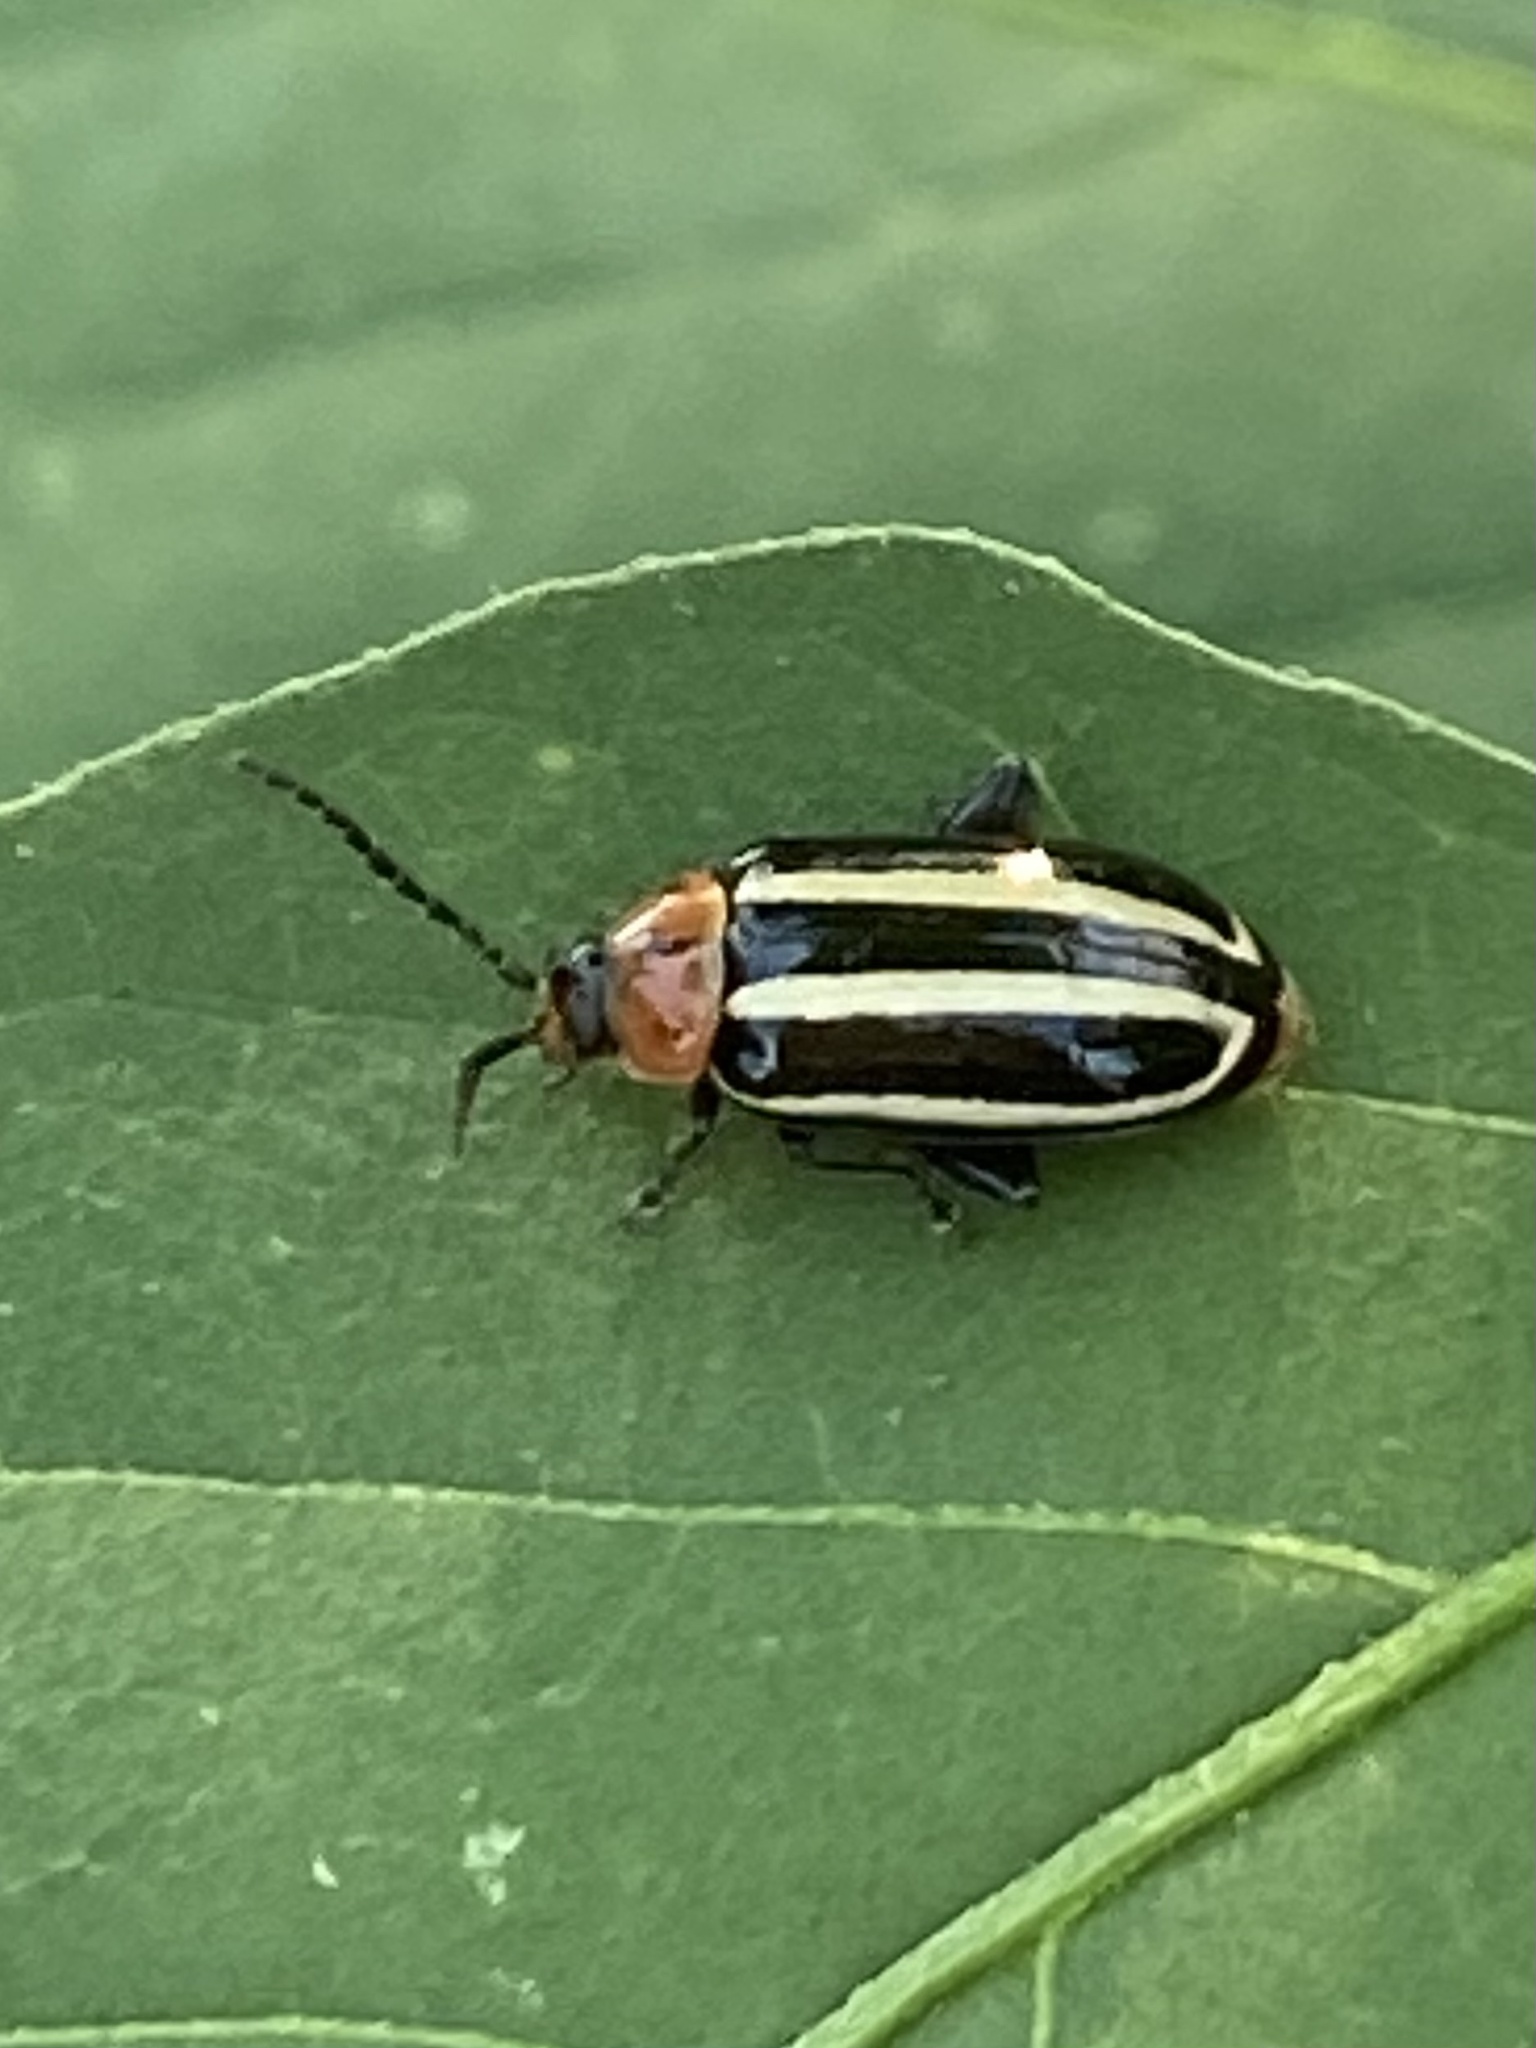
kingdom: Animalia
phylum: Arthropoda
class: Insecta
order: Coleoptera
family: Chrysomelidae
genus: Disonycha
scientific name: Disonycha glabrata
